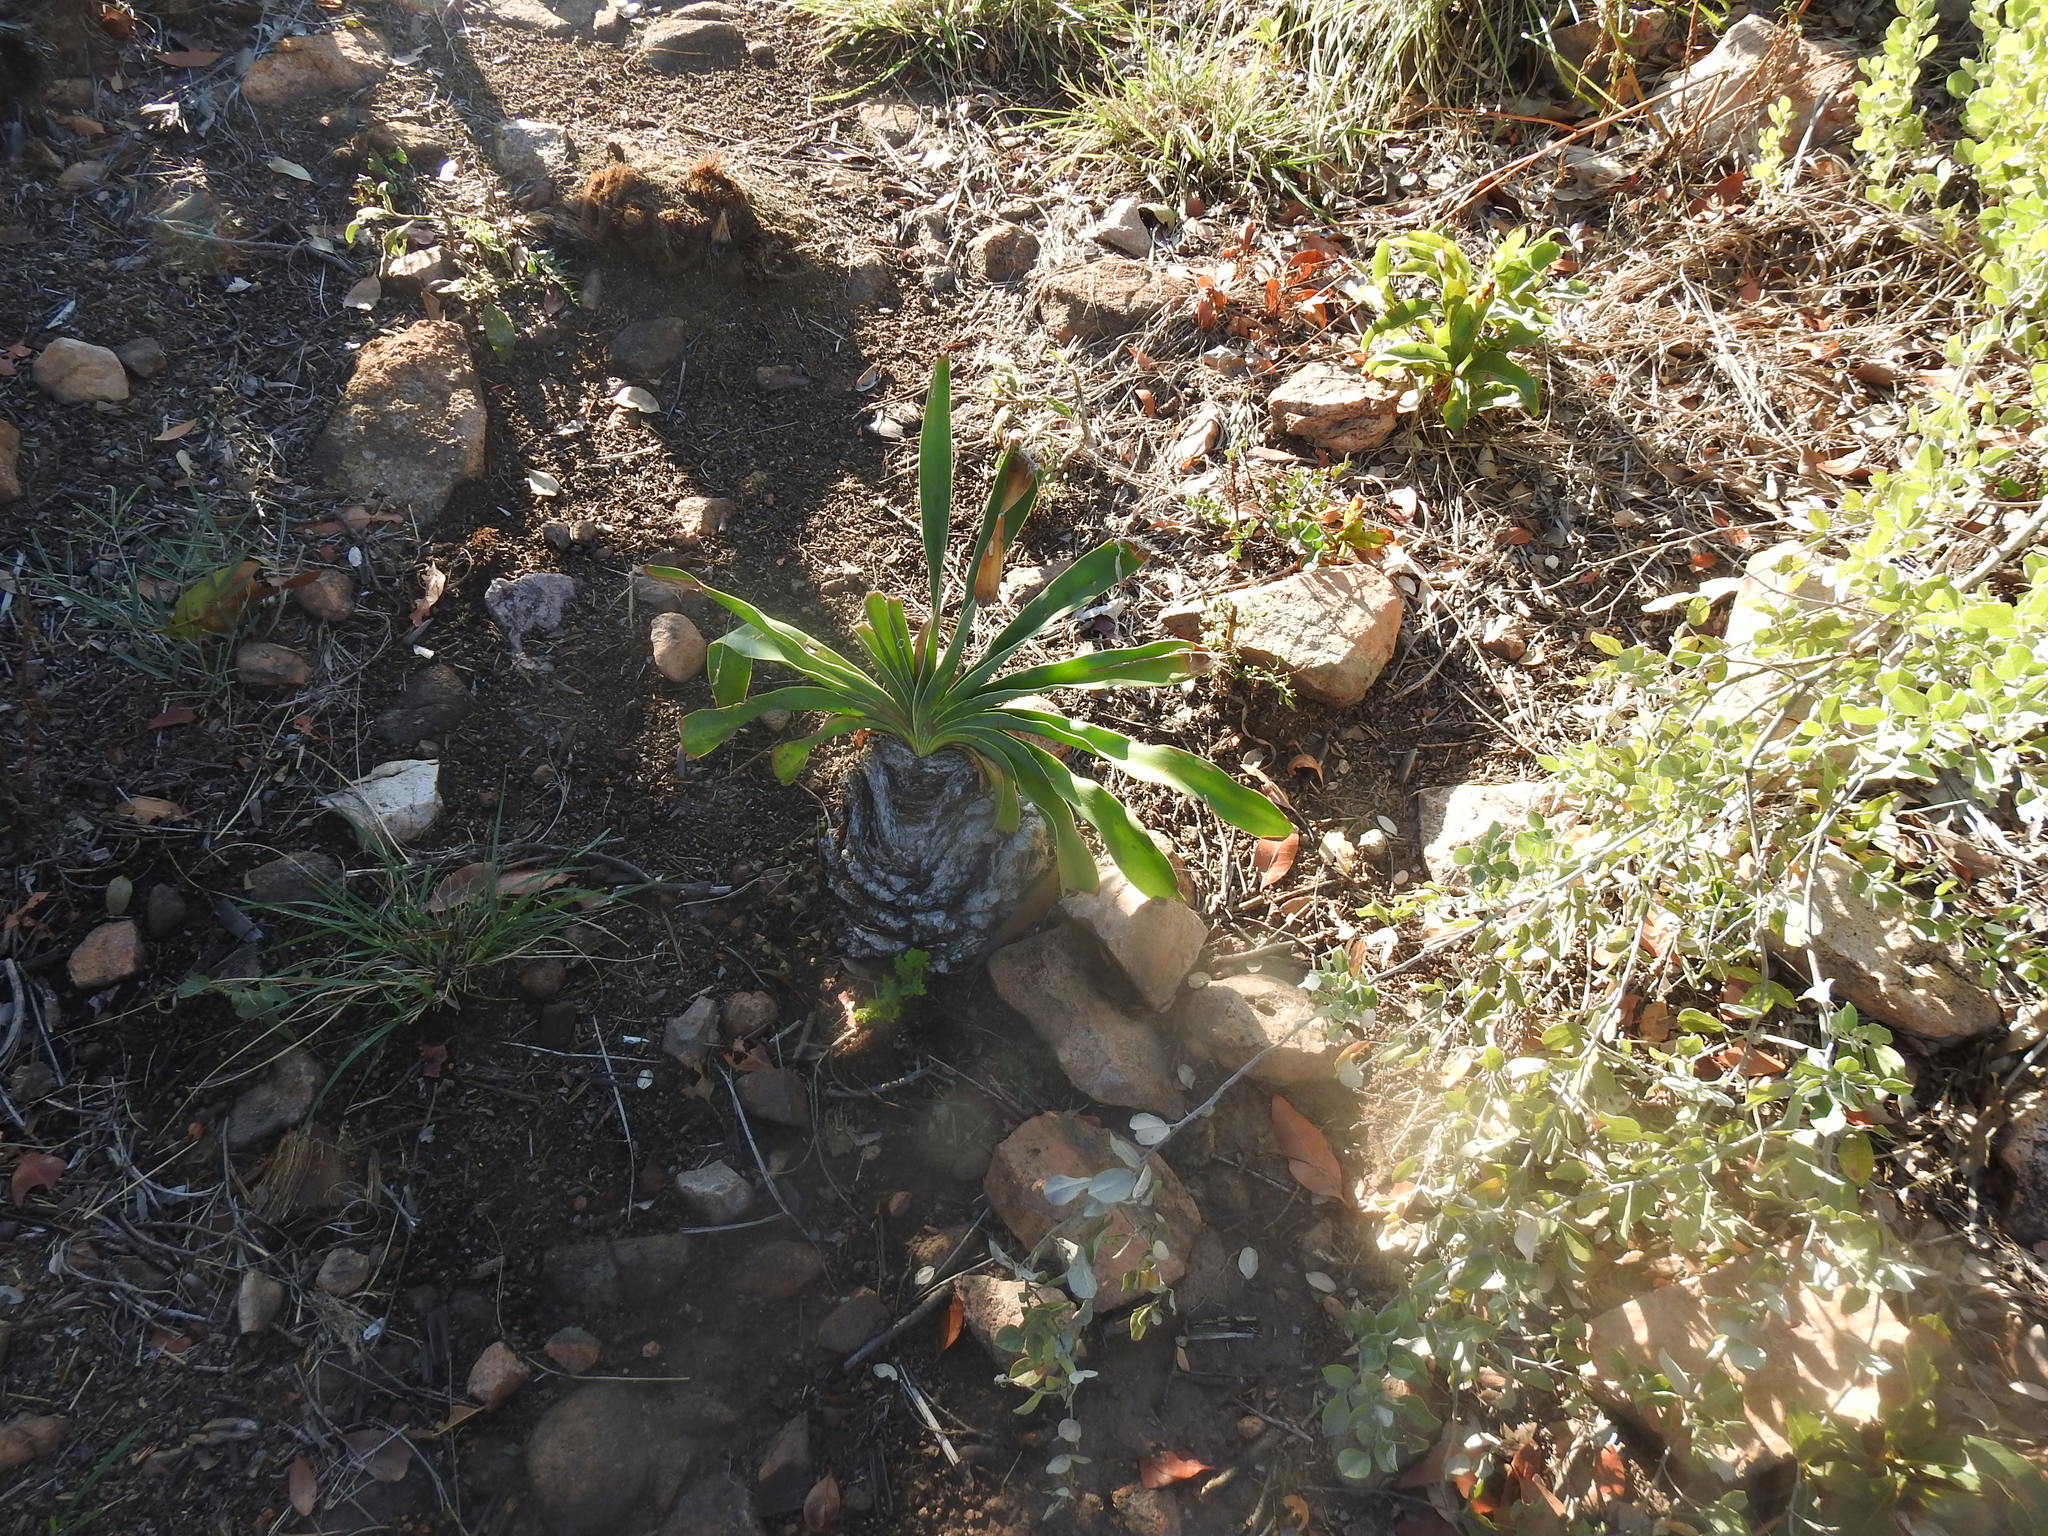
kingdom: Plantae
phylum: Tracheophyta
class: Liliopsida
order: Asparagales
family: Amaryllidaceae
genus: Boophone
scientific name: Boophone disticha
